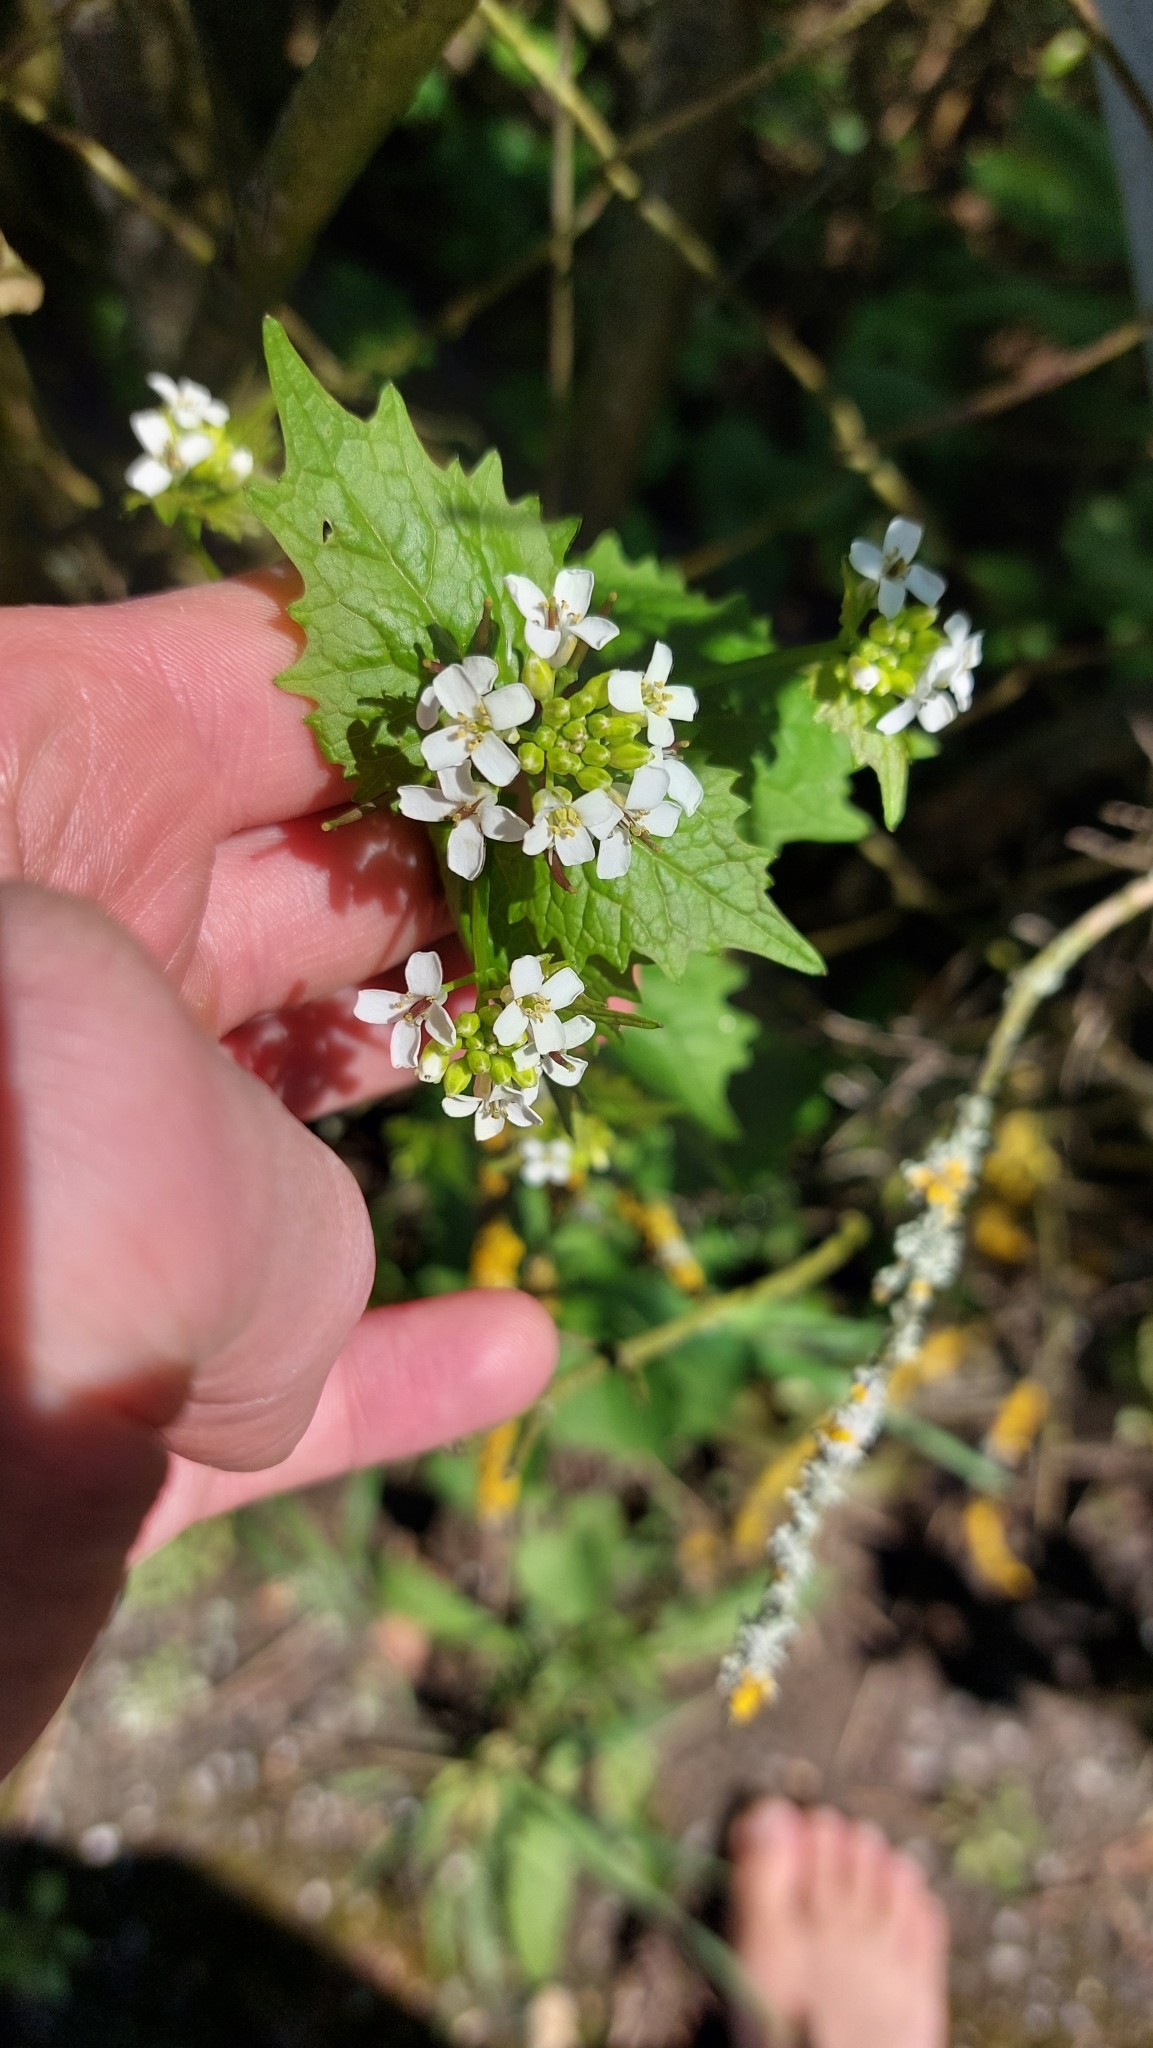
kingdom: Plantae
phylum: Tracheophyta
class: Magnoliopsida
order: Brassicales
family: Brassicaceae
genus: Alliaria
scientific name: Alliaria petiolata
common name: Garlic mustard
